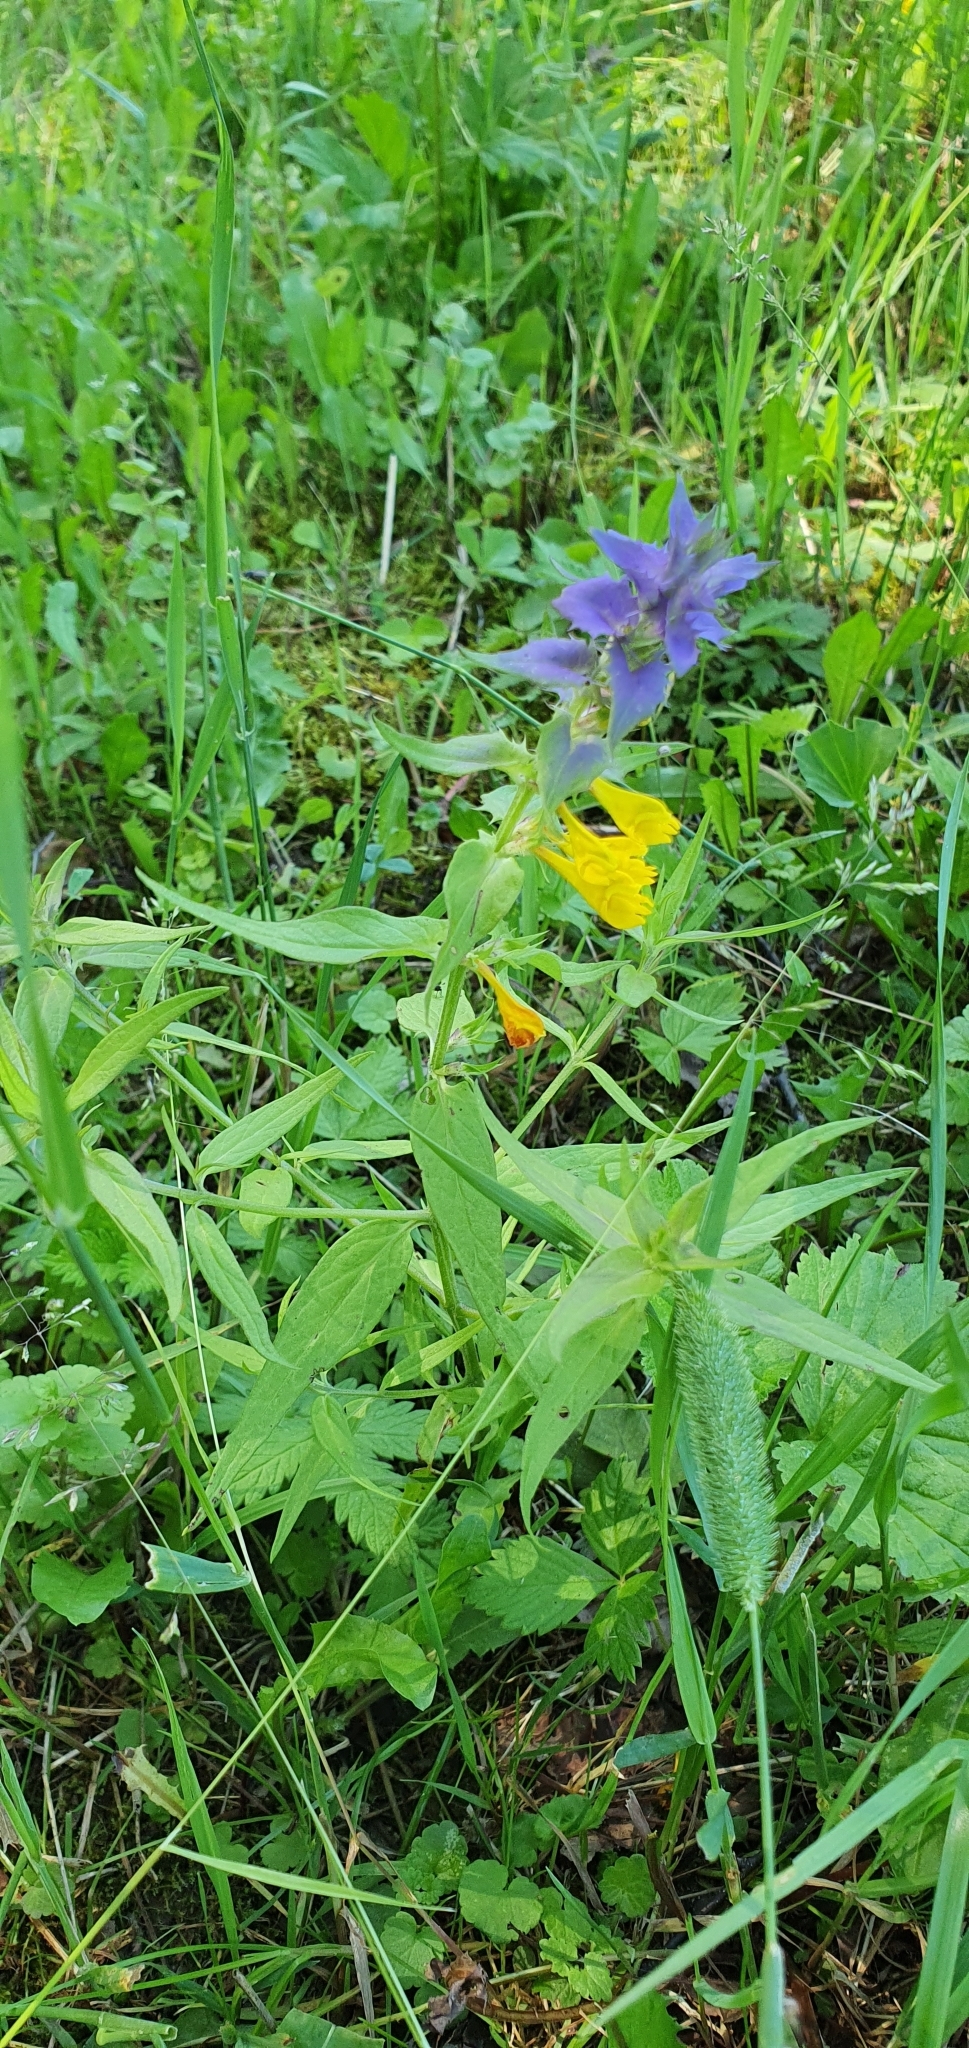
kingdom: Plantae
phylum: Tracheophyta
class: Magnoliopsida
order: Lamiales
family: Orobanchaceae
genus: Melampyrum
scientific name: Melampyrum nemorosum
